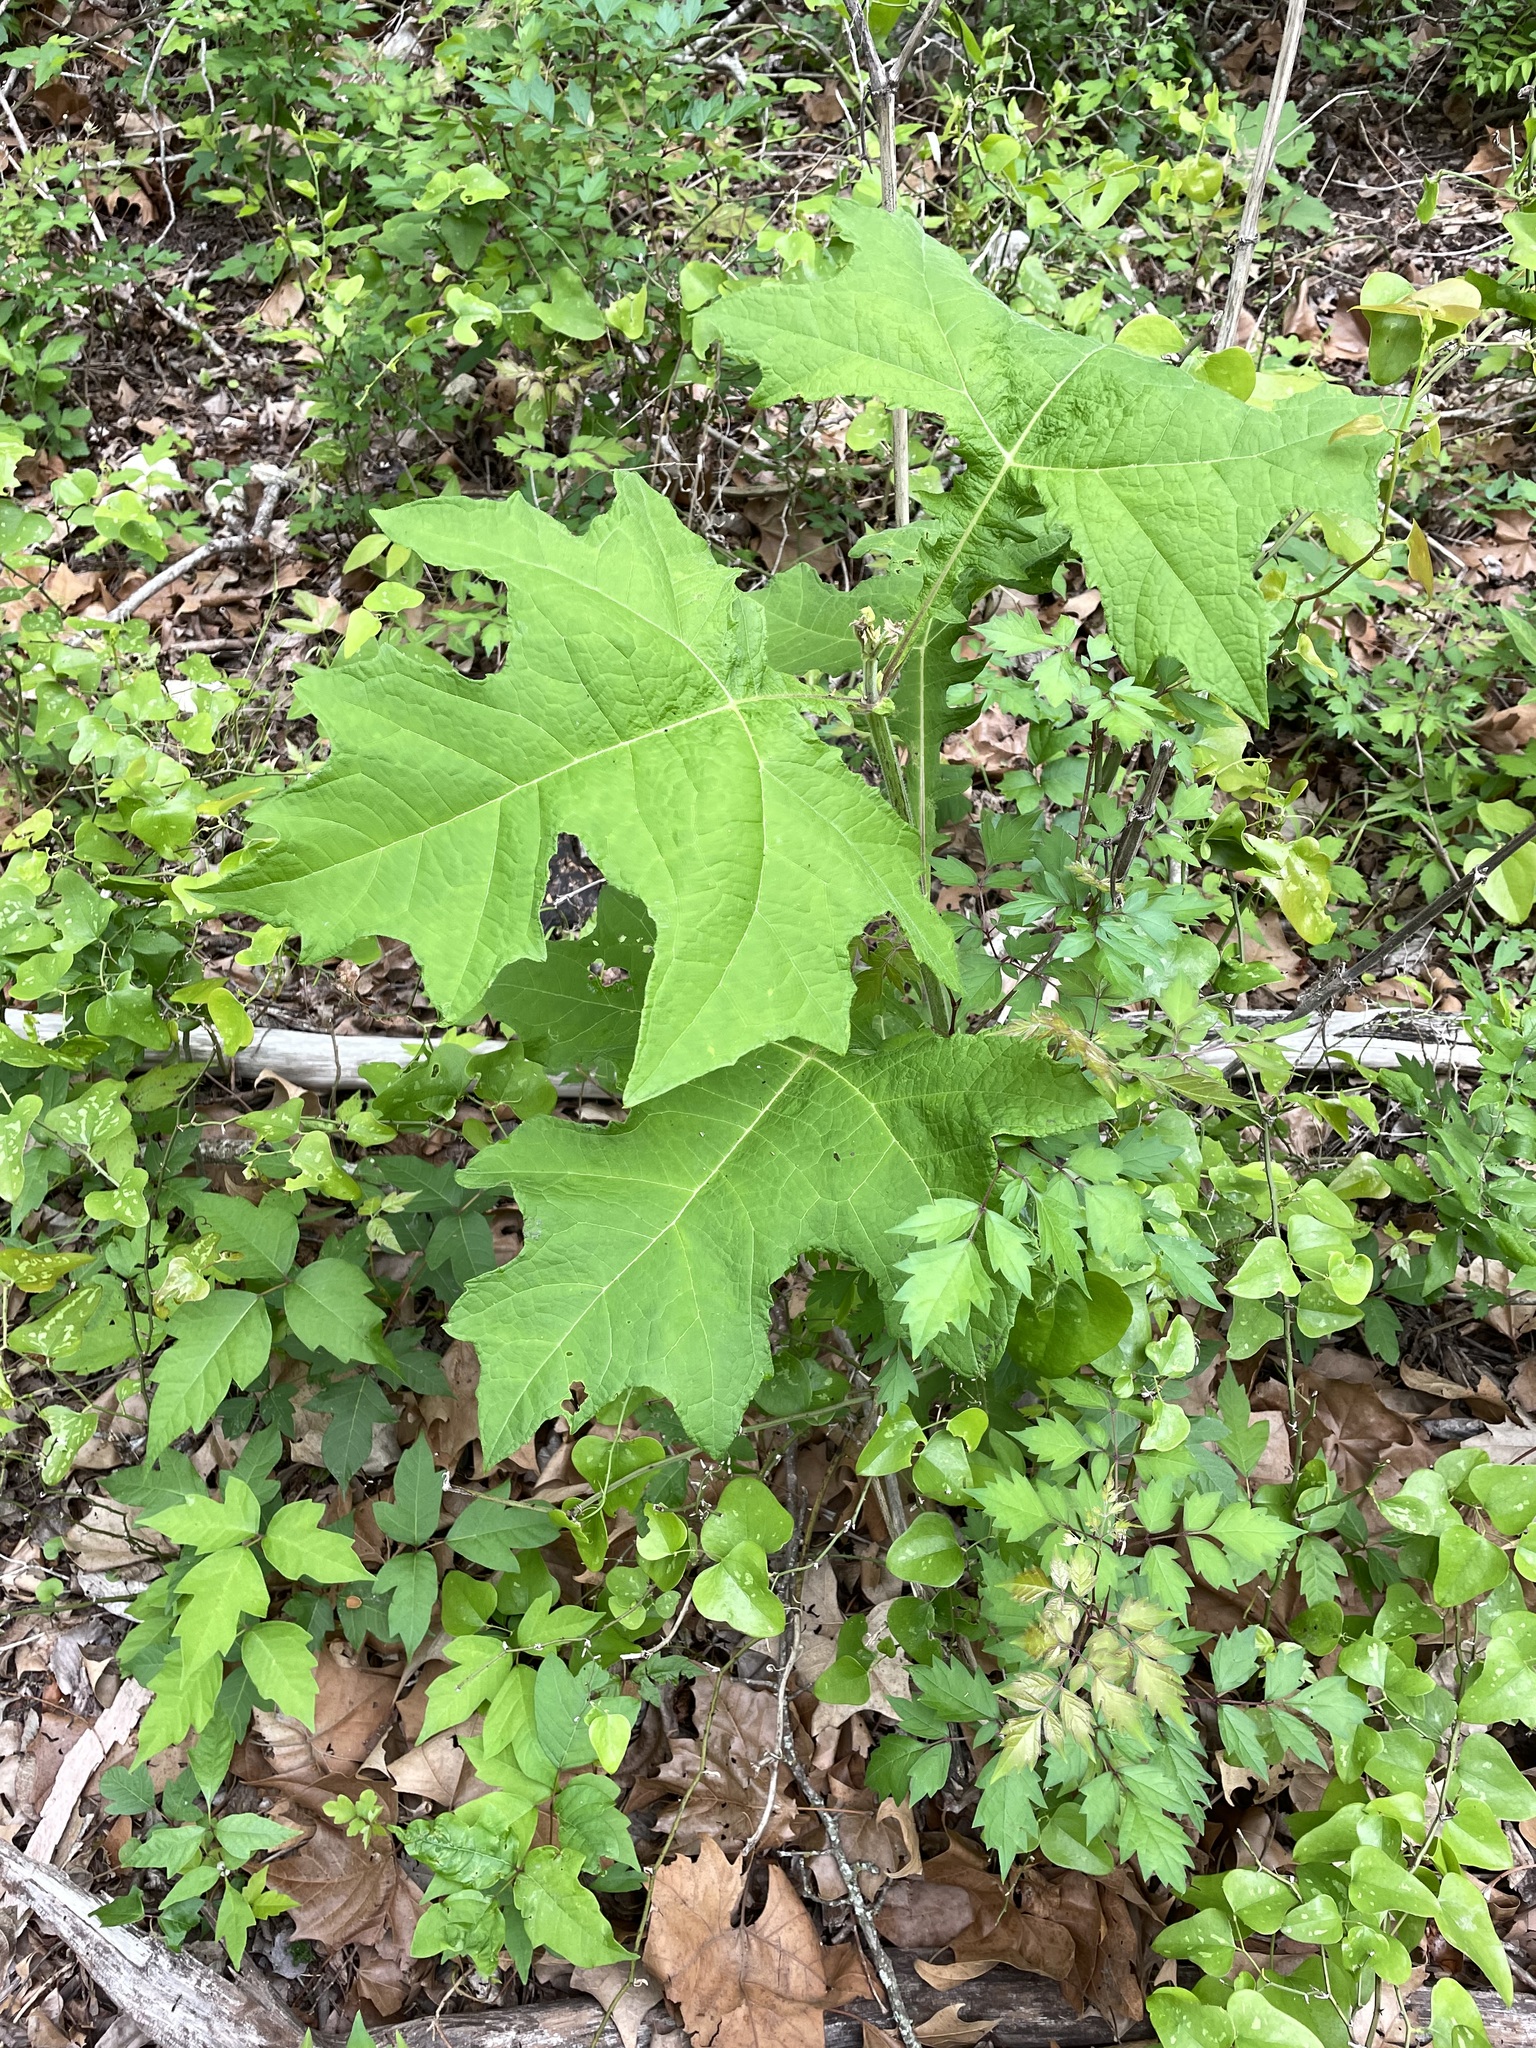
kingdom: Plantae
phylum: Tracheophyta
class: Magnoliopsida
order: Asterales
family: Asteraceae
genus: Smallanthus
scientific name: Smallanthus uvedalia
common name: Bear's-foot
